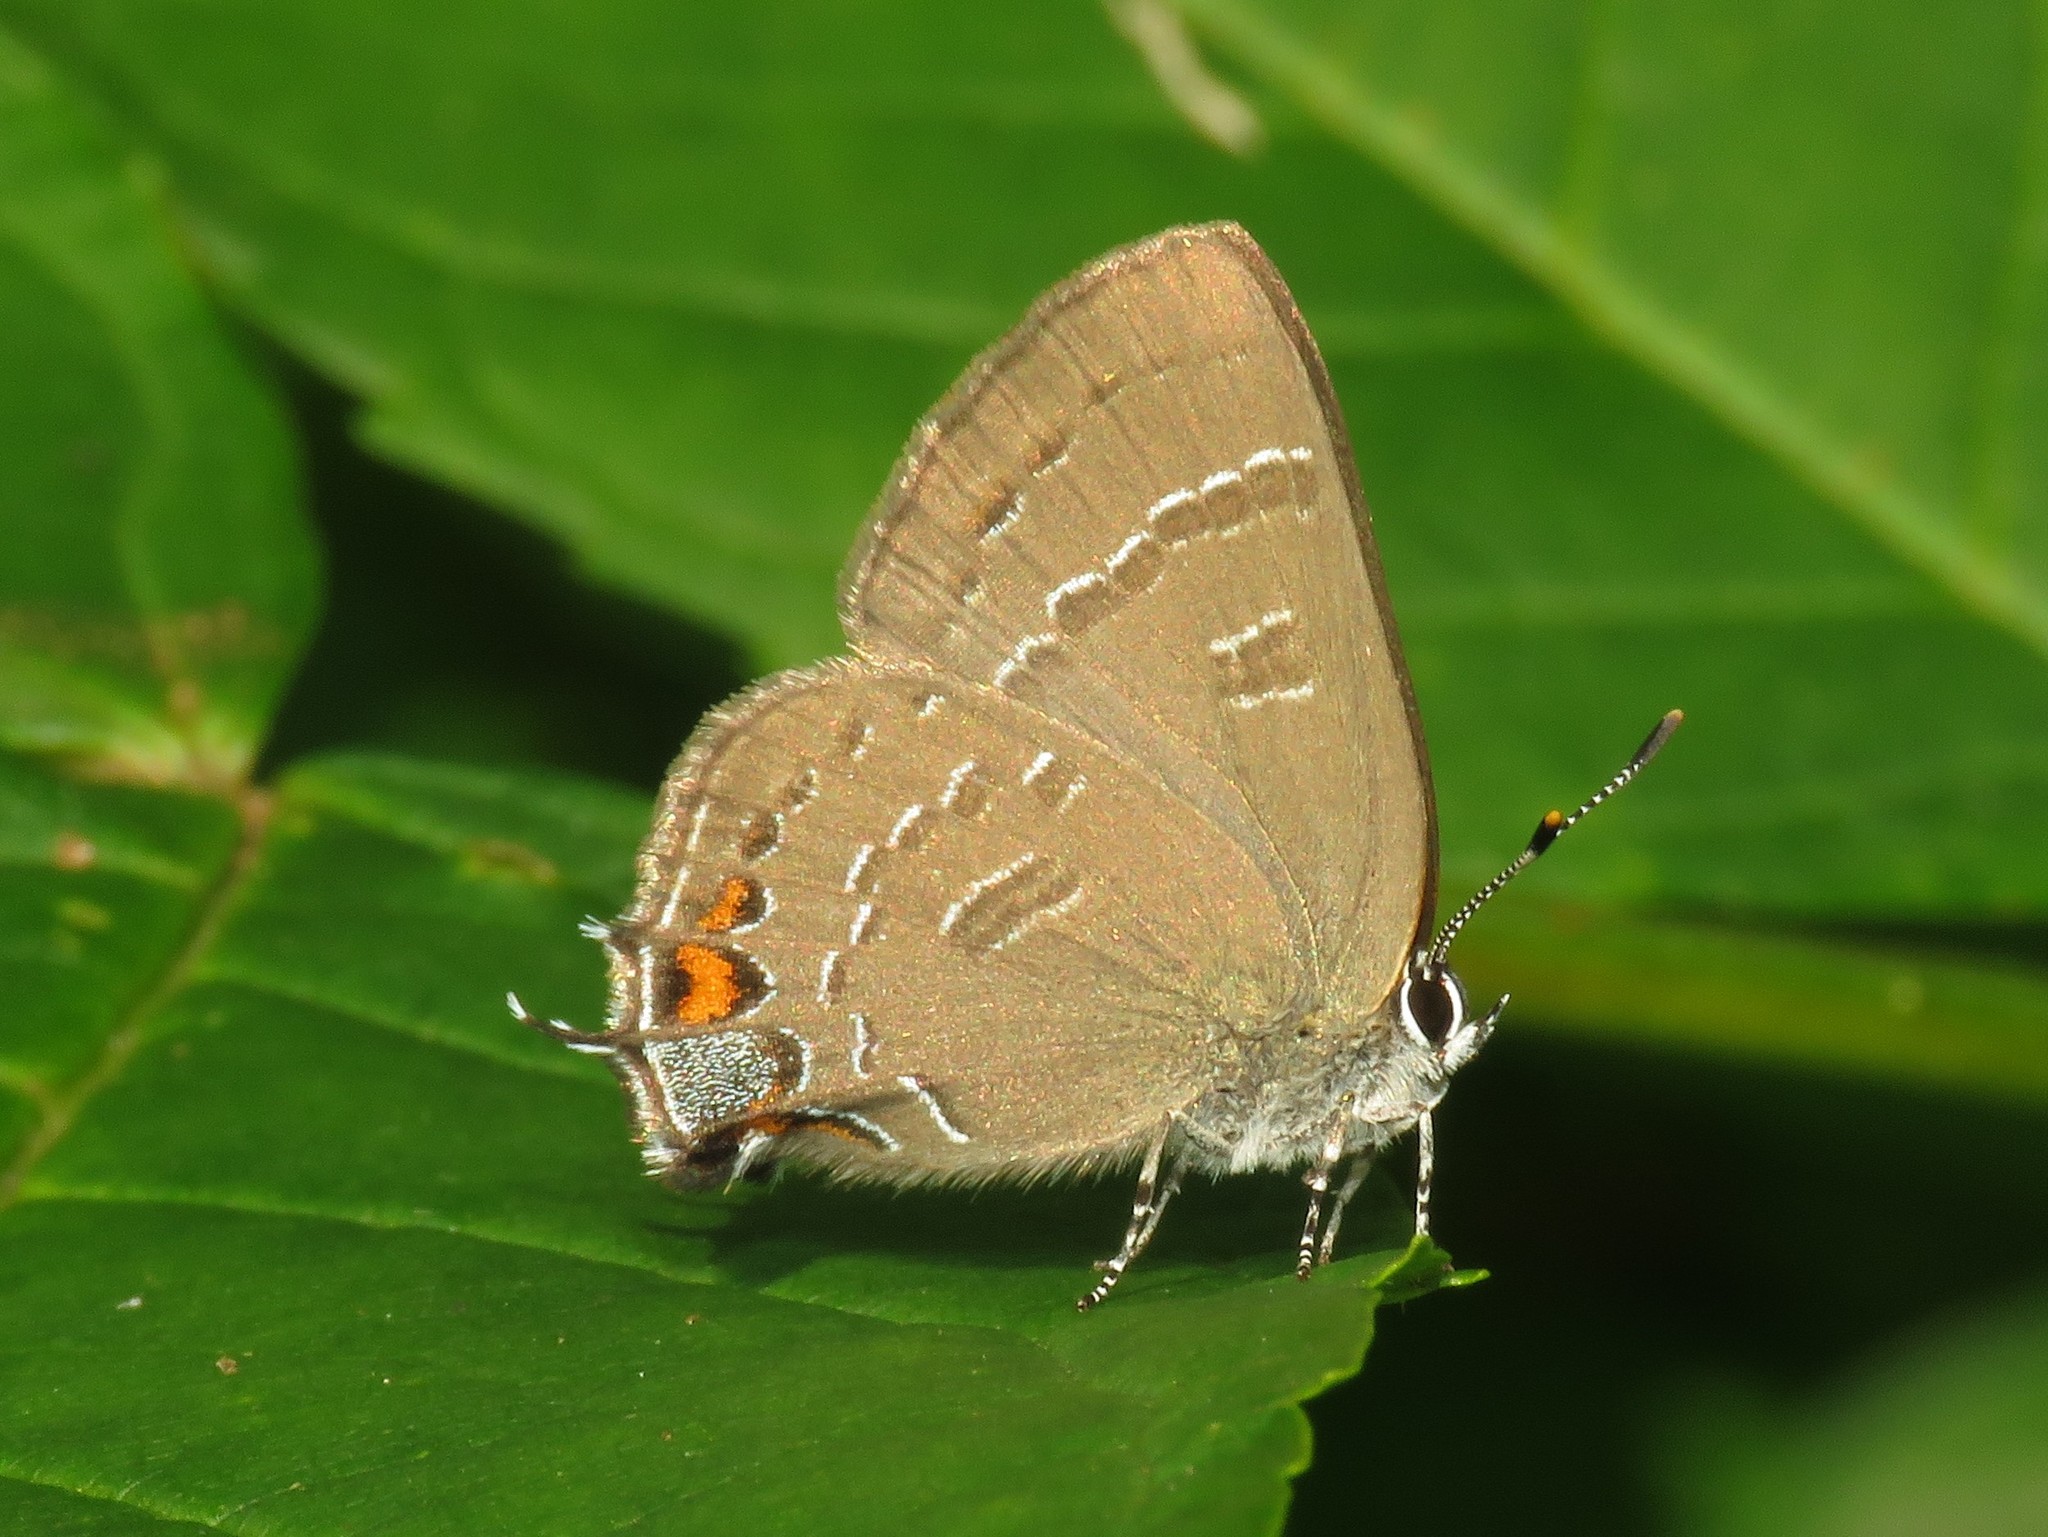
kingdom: Animalia
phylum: Arthropoda
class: Insecta
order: Lepidoptera
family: Lycaenidae
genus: Satyrium
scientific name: Satyrium calanus
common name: Banded hairstreak
